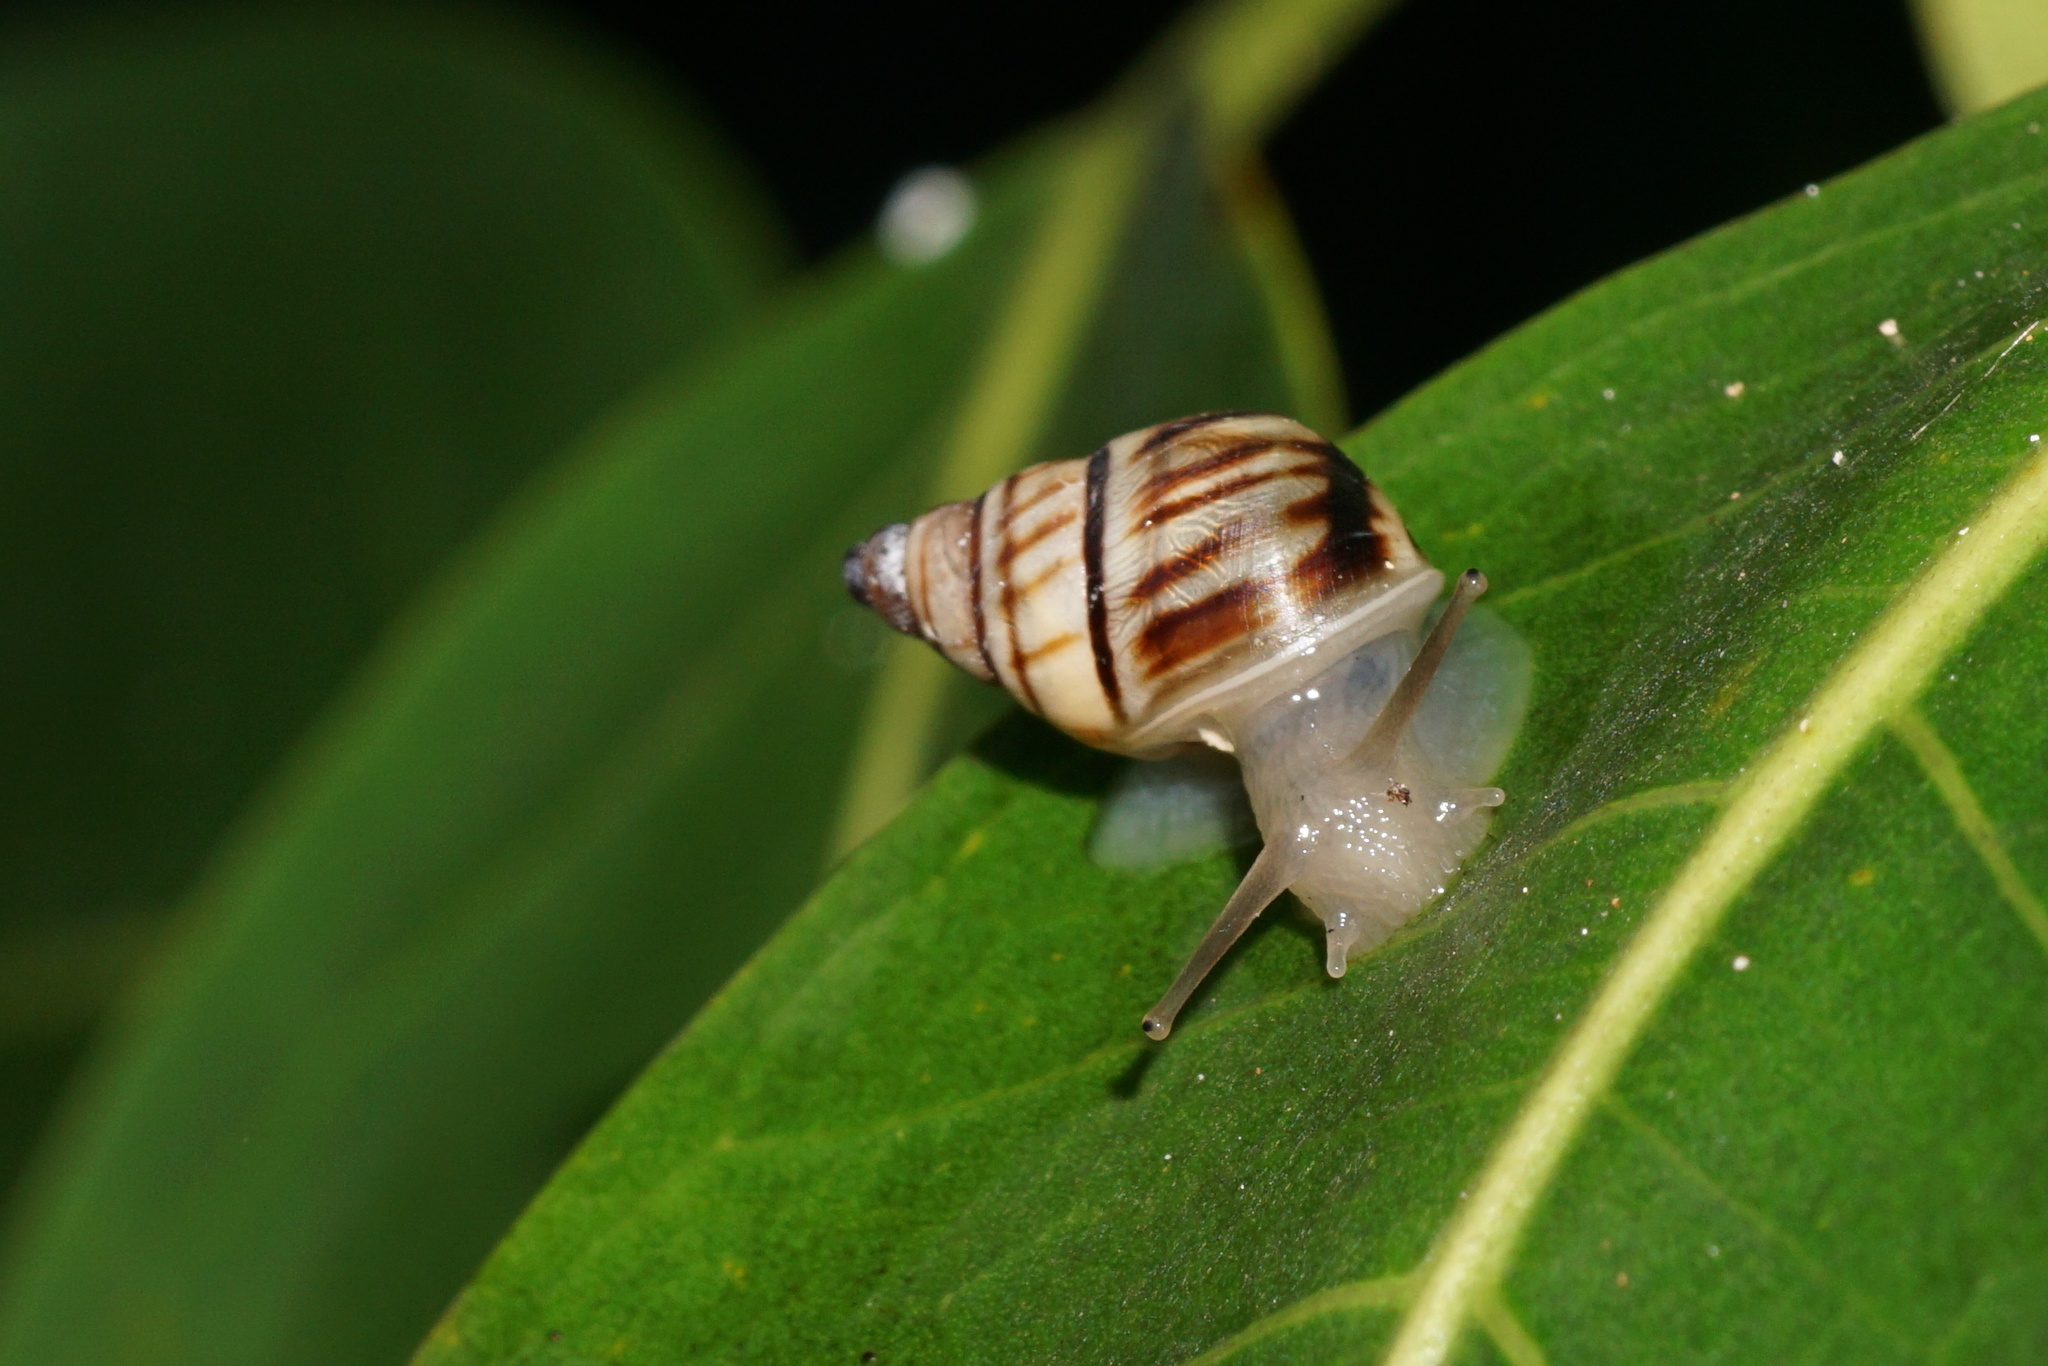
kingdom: Animalia
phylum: Mollusca
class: Gastropoda
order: Stylommatophora
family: Bulimulidae
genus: Drymaeus
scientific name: Drymaeus
